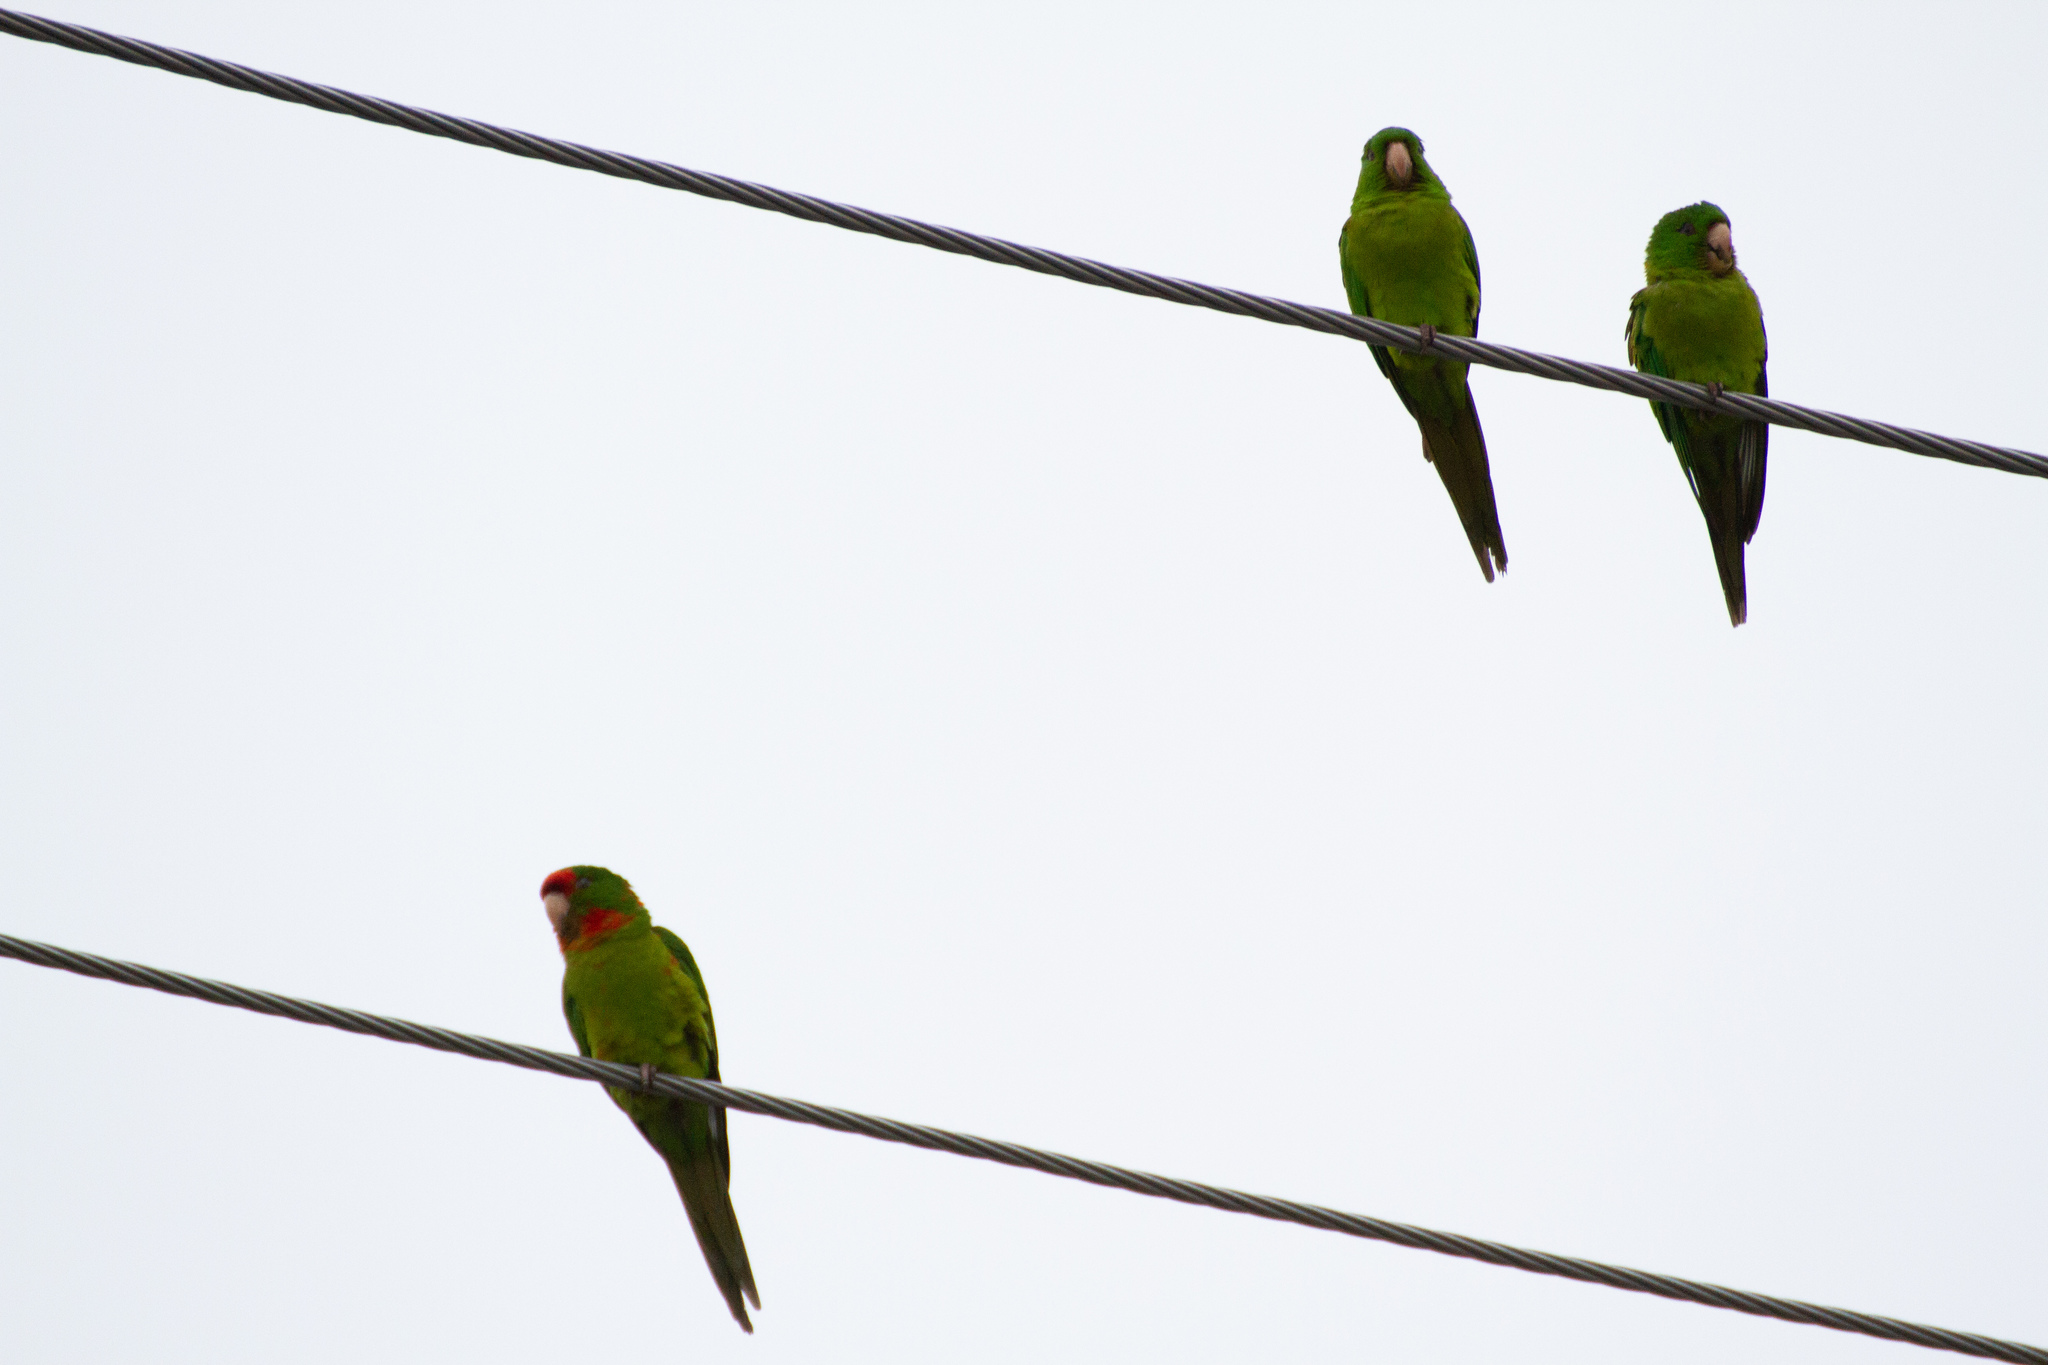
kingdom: Animalia
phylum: Chordata
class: Aves
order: Psittaciformes
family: Psittacidae
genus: Aratinga
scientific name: Aratinga mitrata
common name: Mitred parakeet
